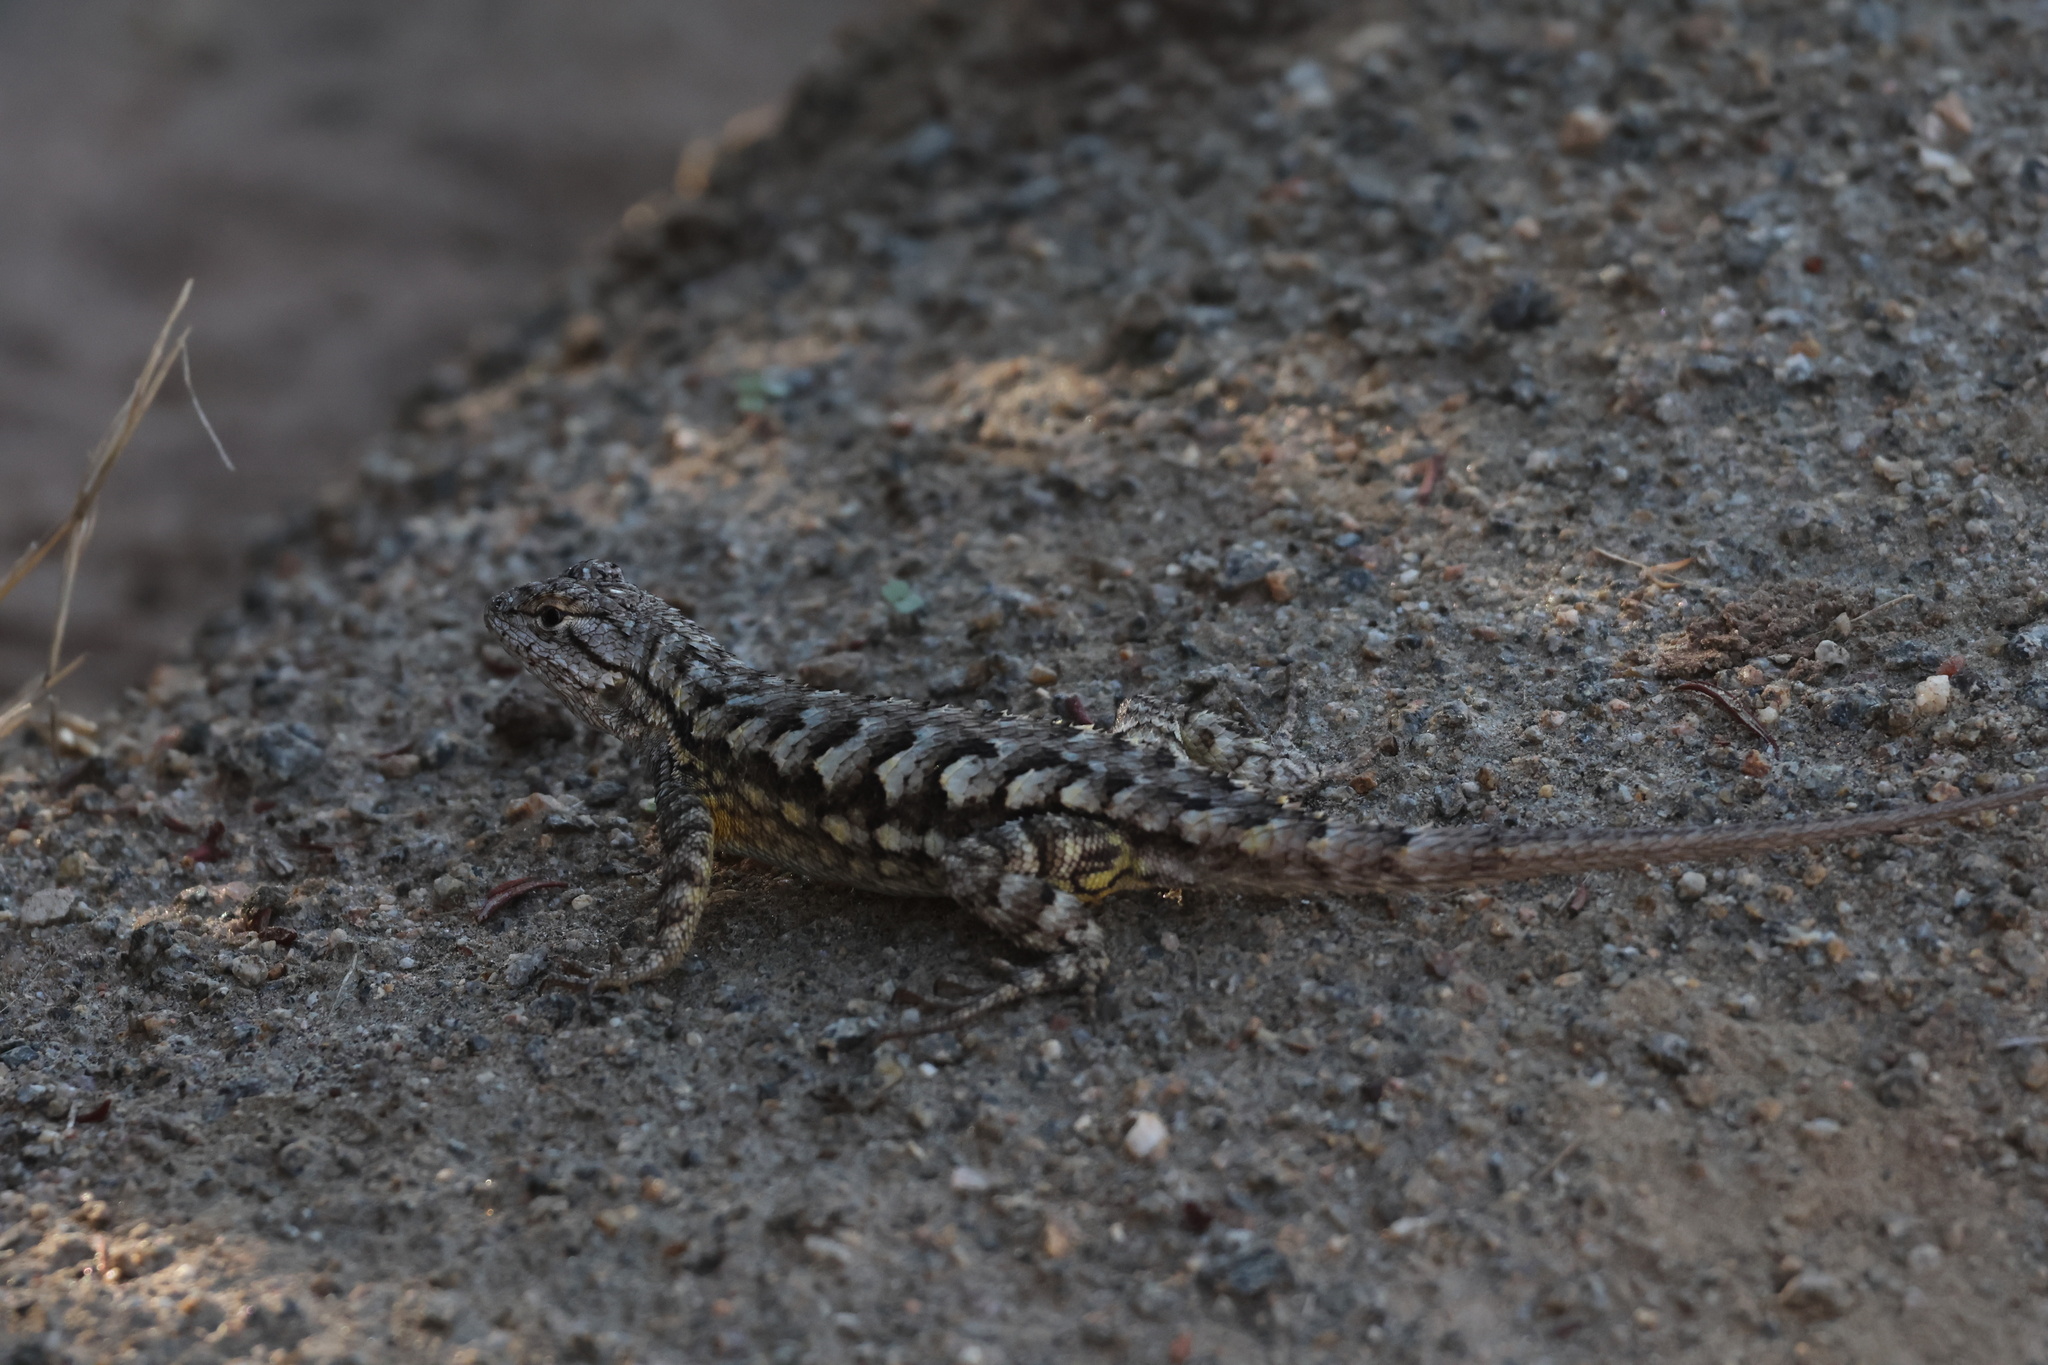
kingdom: Animalia
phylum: Chordata
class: Squamata
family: Phrynosomatidae
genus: Sceloporus
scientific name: Sceloporus occidentalis
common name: Western fence lizard
